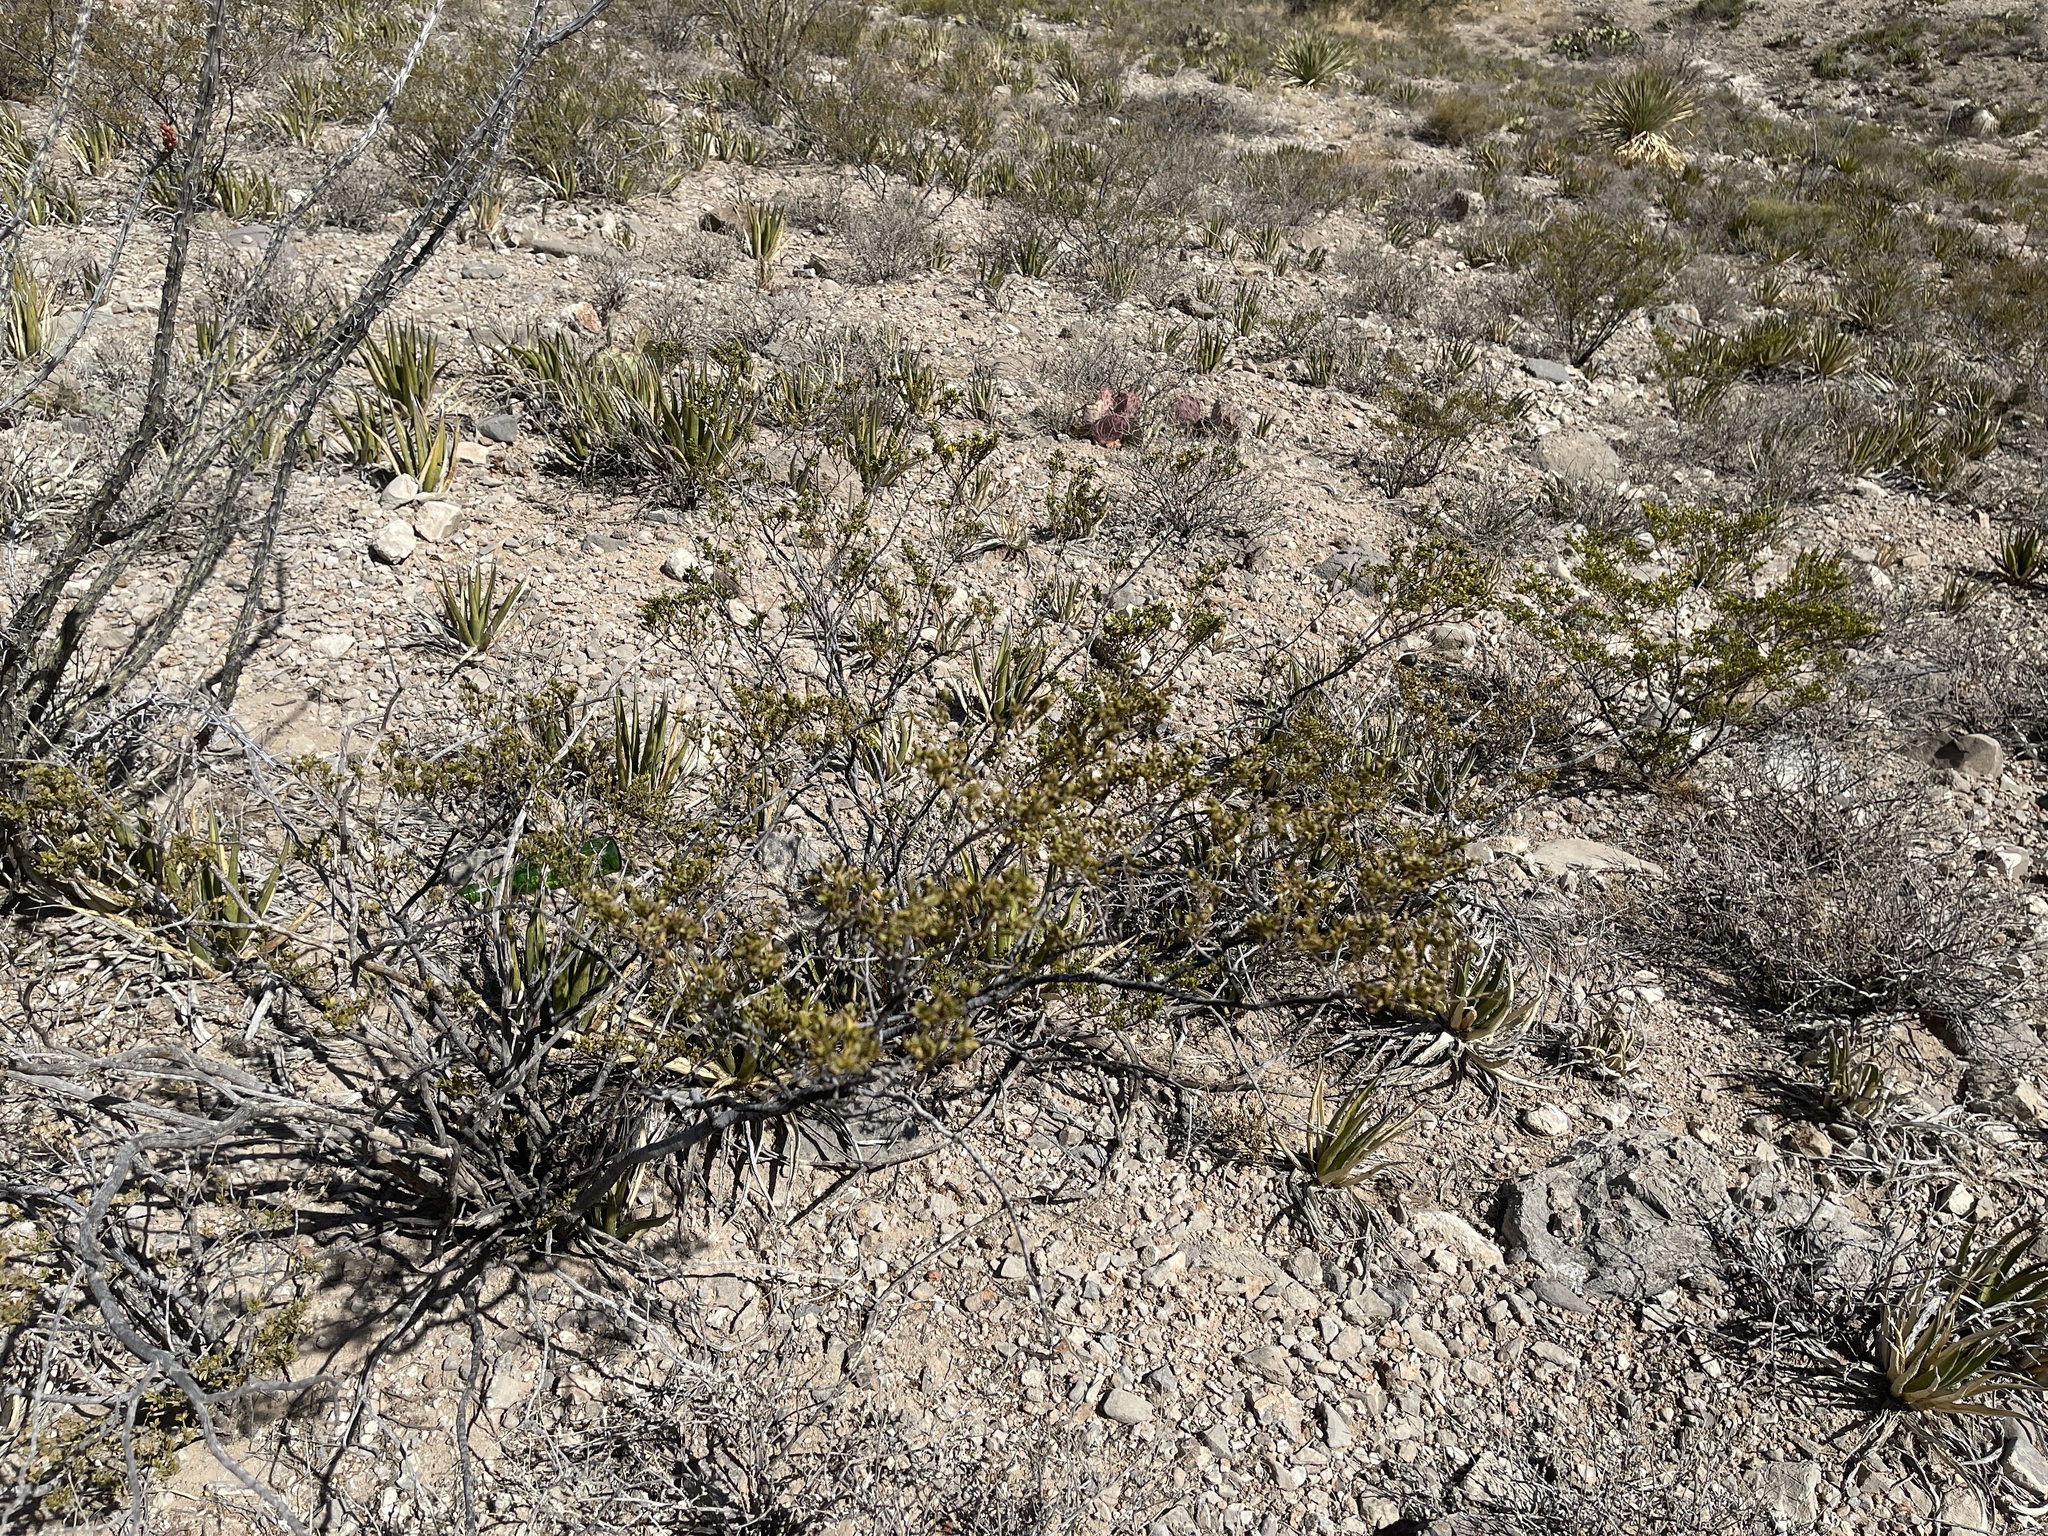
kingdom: Plantae
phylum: Tracheophyta
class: Magnoliopsida
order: Zygophyllales
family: Zygophyllaceae
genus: Larrea
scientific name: Larrea tridentata
